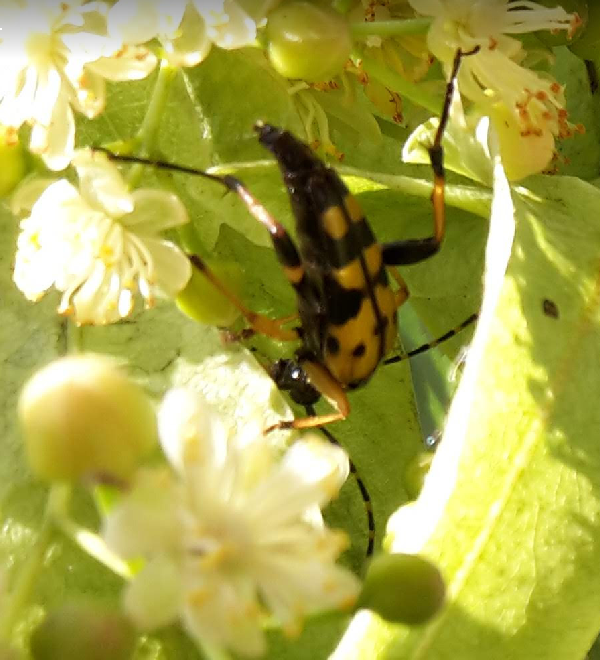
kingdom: Animalia
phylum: Arthropoda
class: Insecta
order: Coleoptera
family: Cerambycidae
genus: Rutpela
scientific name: Rutpela maculata
